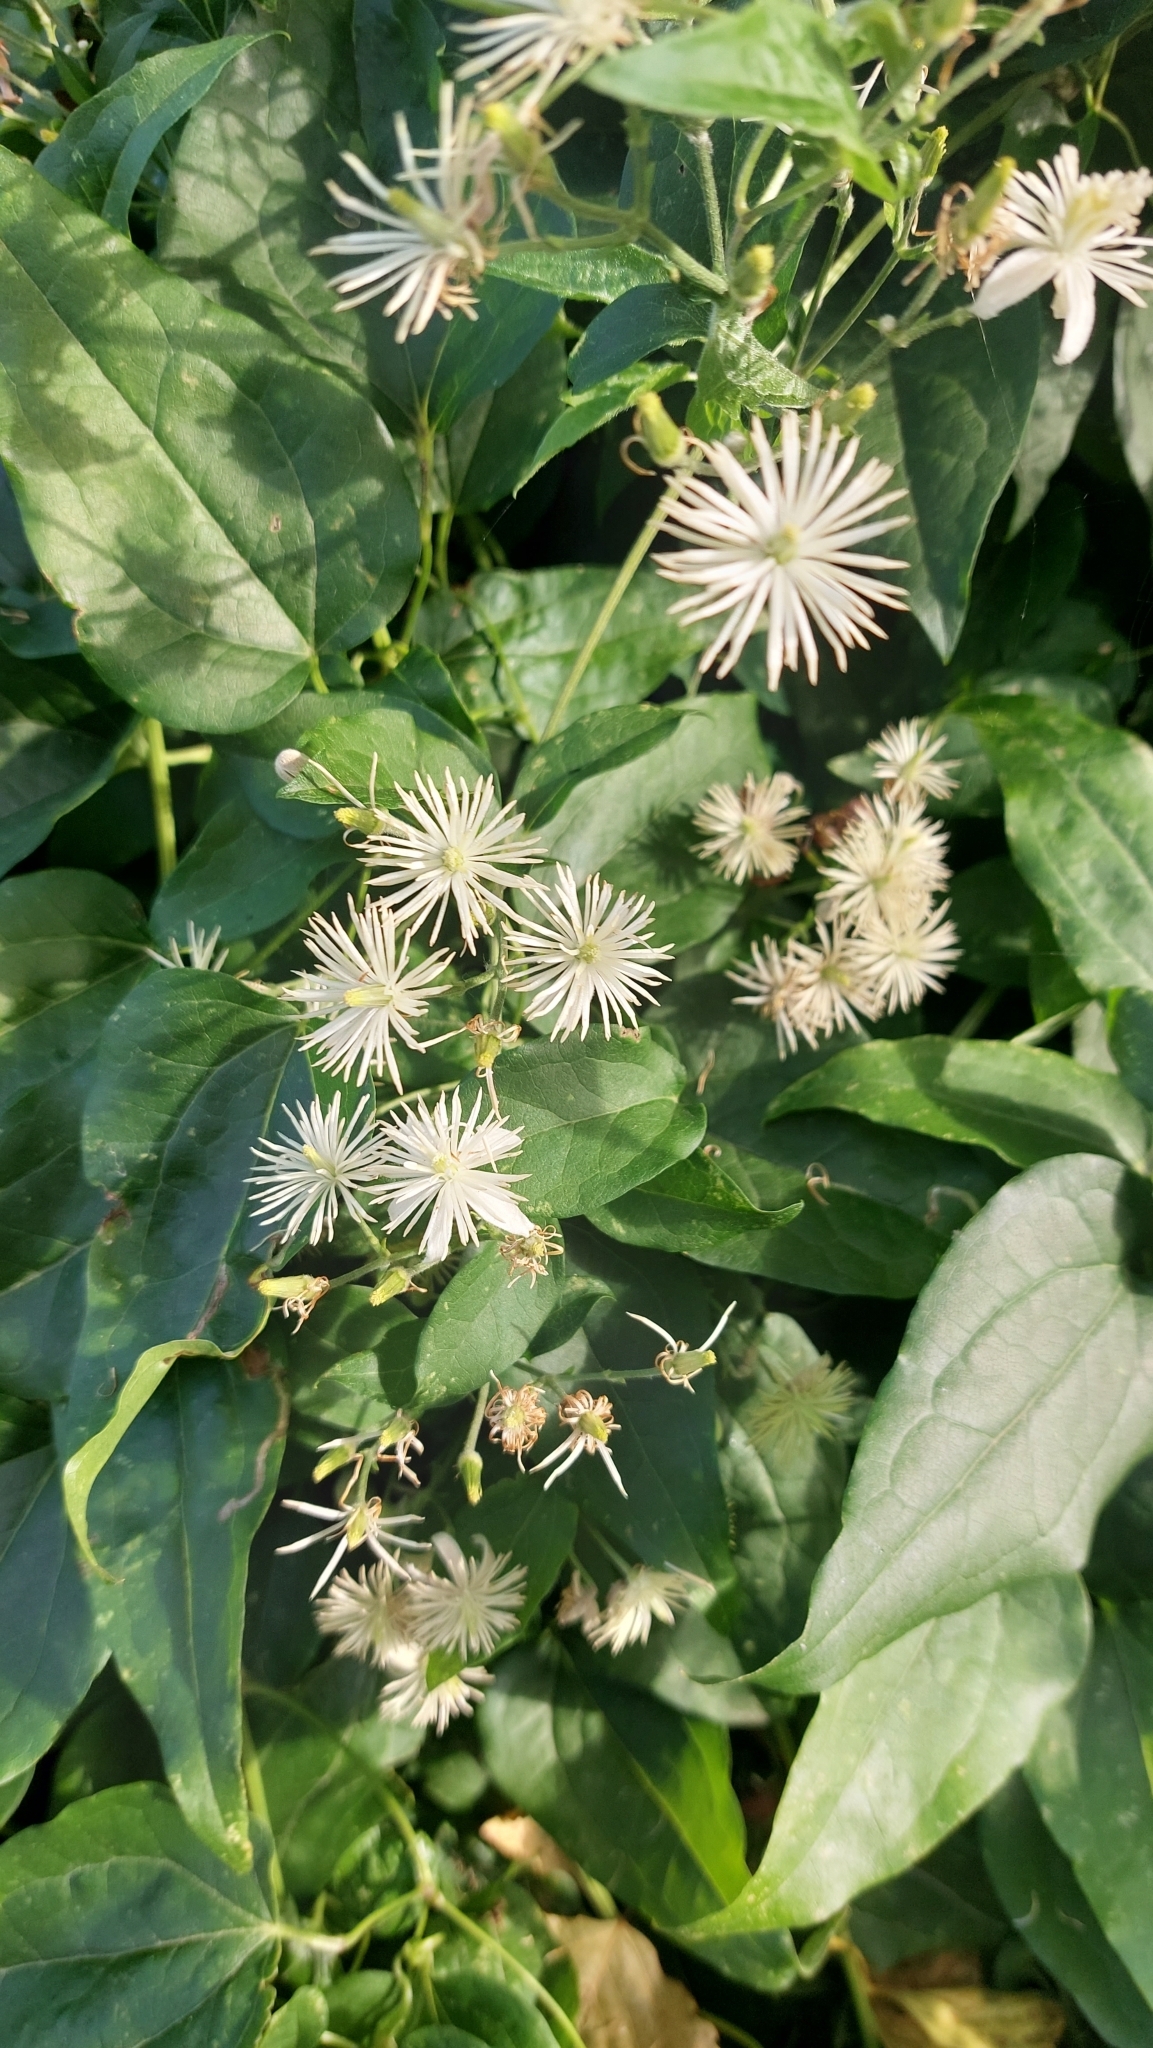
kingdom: Plantae
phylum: Tracheophyta
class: Magnoliopsida
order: Ranunculales
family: Ranunculaceae
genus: Clematis
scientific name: Clematis vitalba
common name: Evergreen clematis
